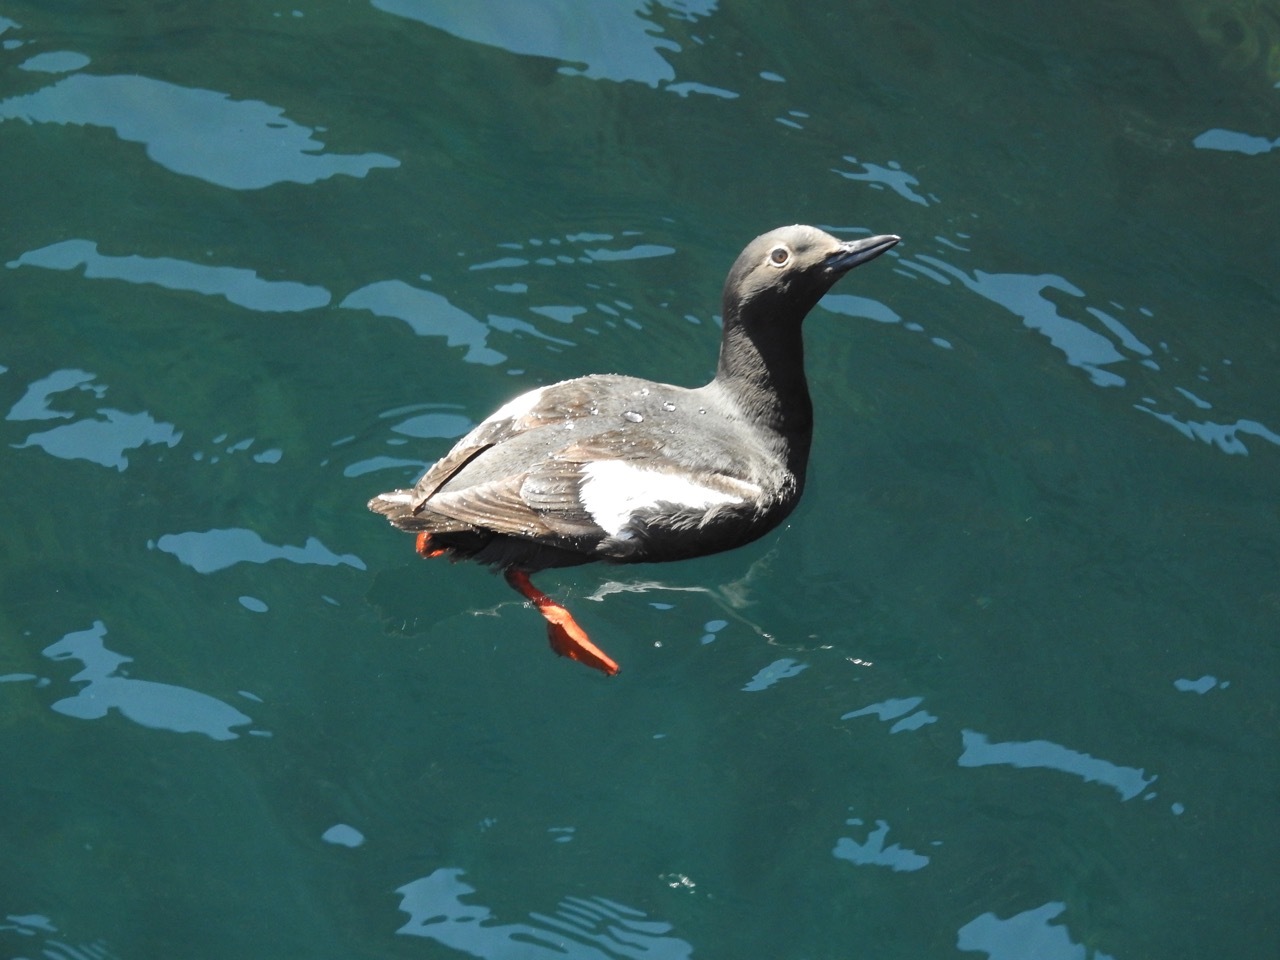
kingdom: Animalia
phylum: Chordata
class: Aves
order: Charadriiformes
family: Alcidae
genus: Cepphus
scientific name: Cepphus columba
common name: Pigeon guillemot
